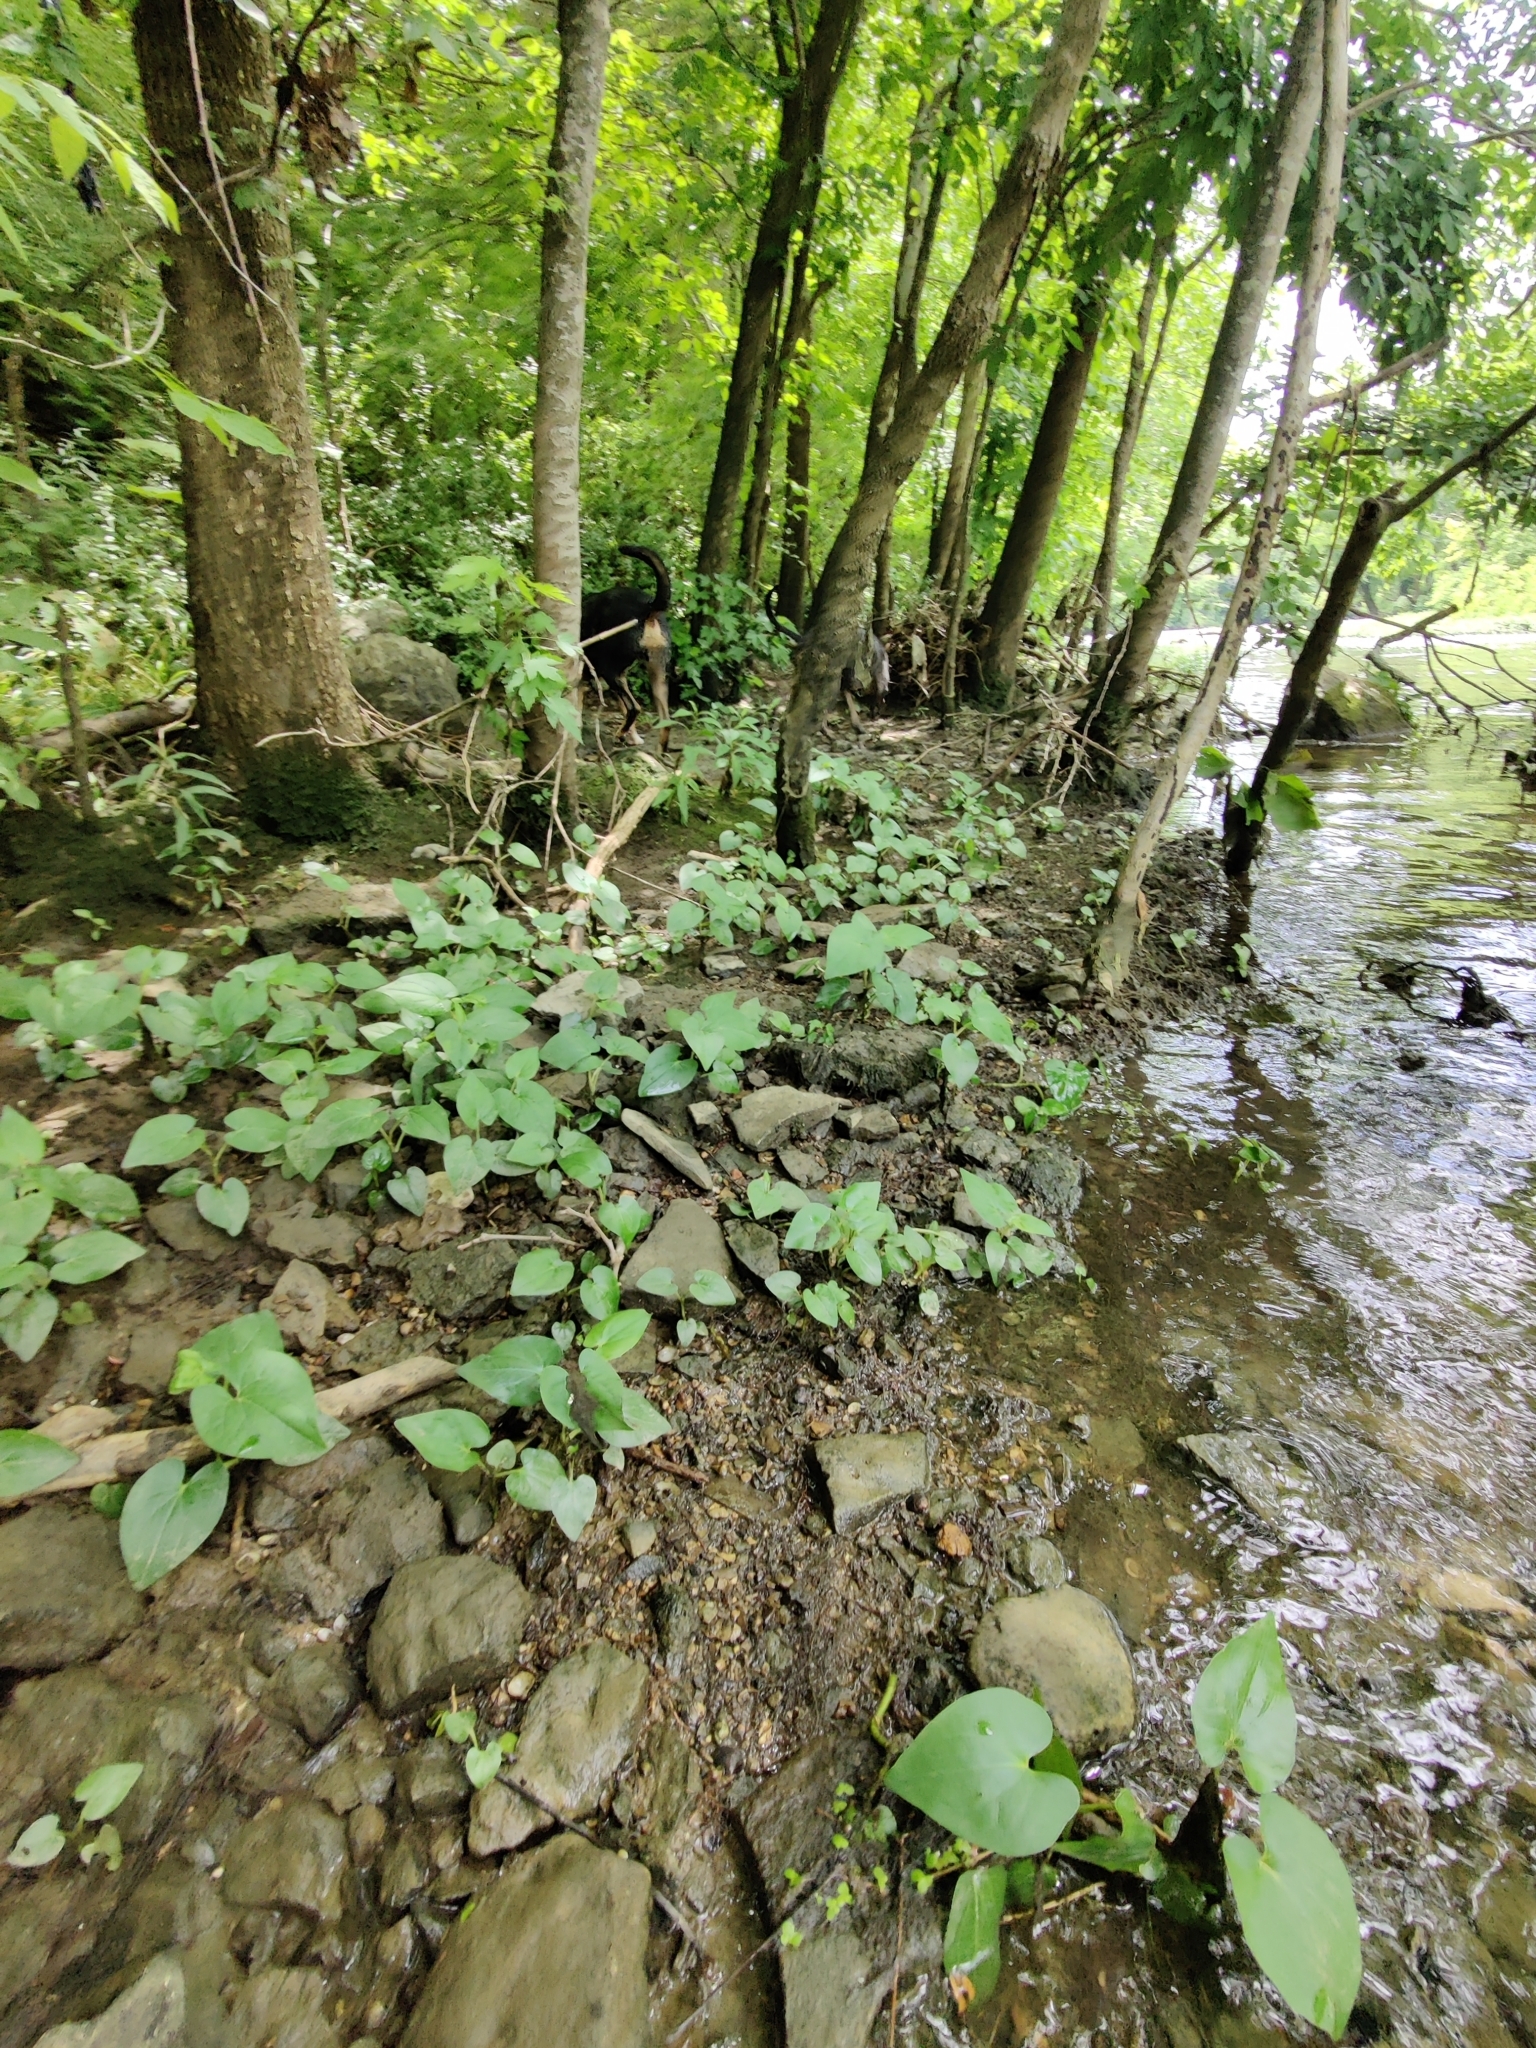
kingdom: Plantae
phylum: Tracheophyta
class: Magnoliopsida
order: Piperales
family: Saururaceae
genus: Saururus
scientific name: Saururus cernuus
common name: Lizard's-tail
